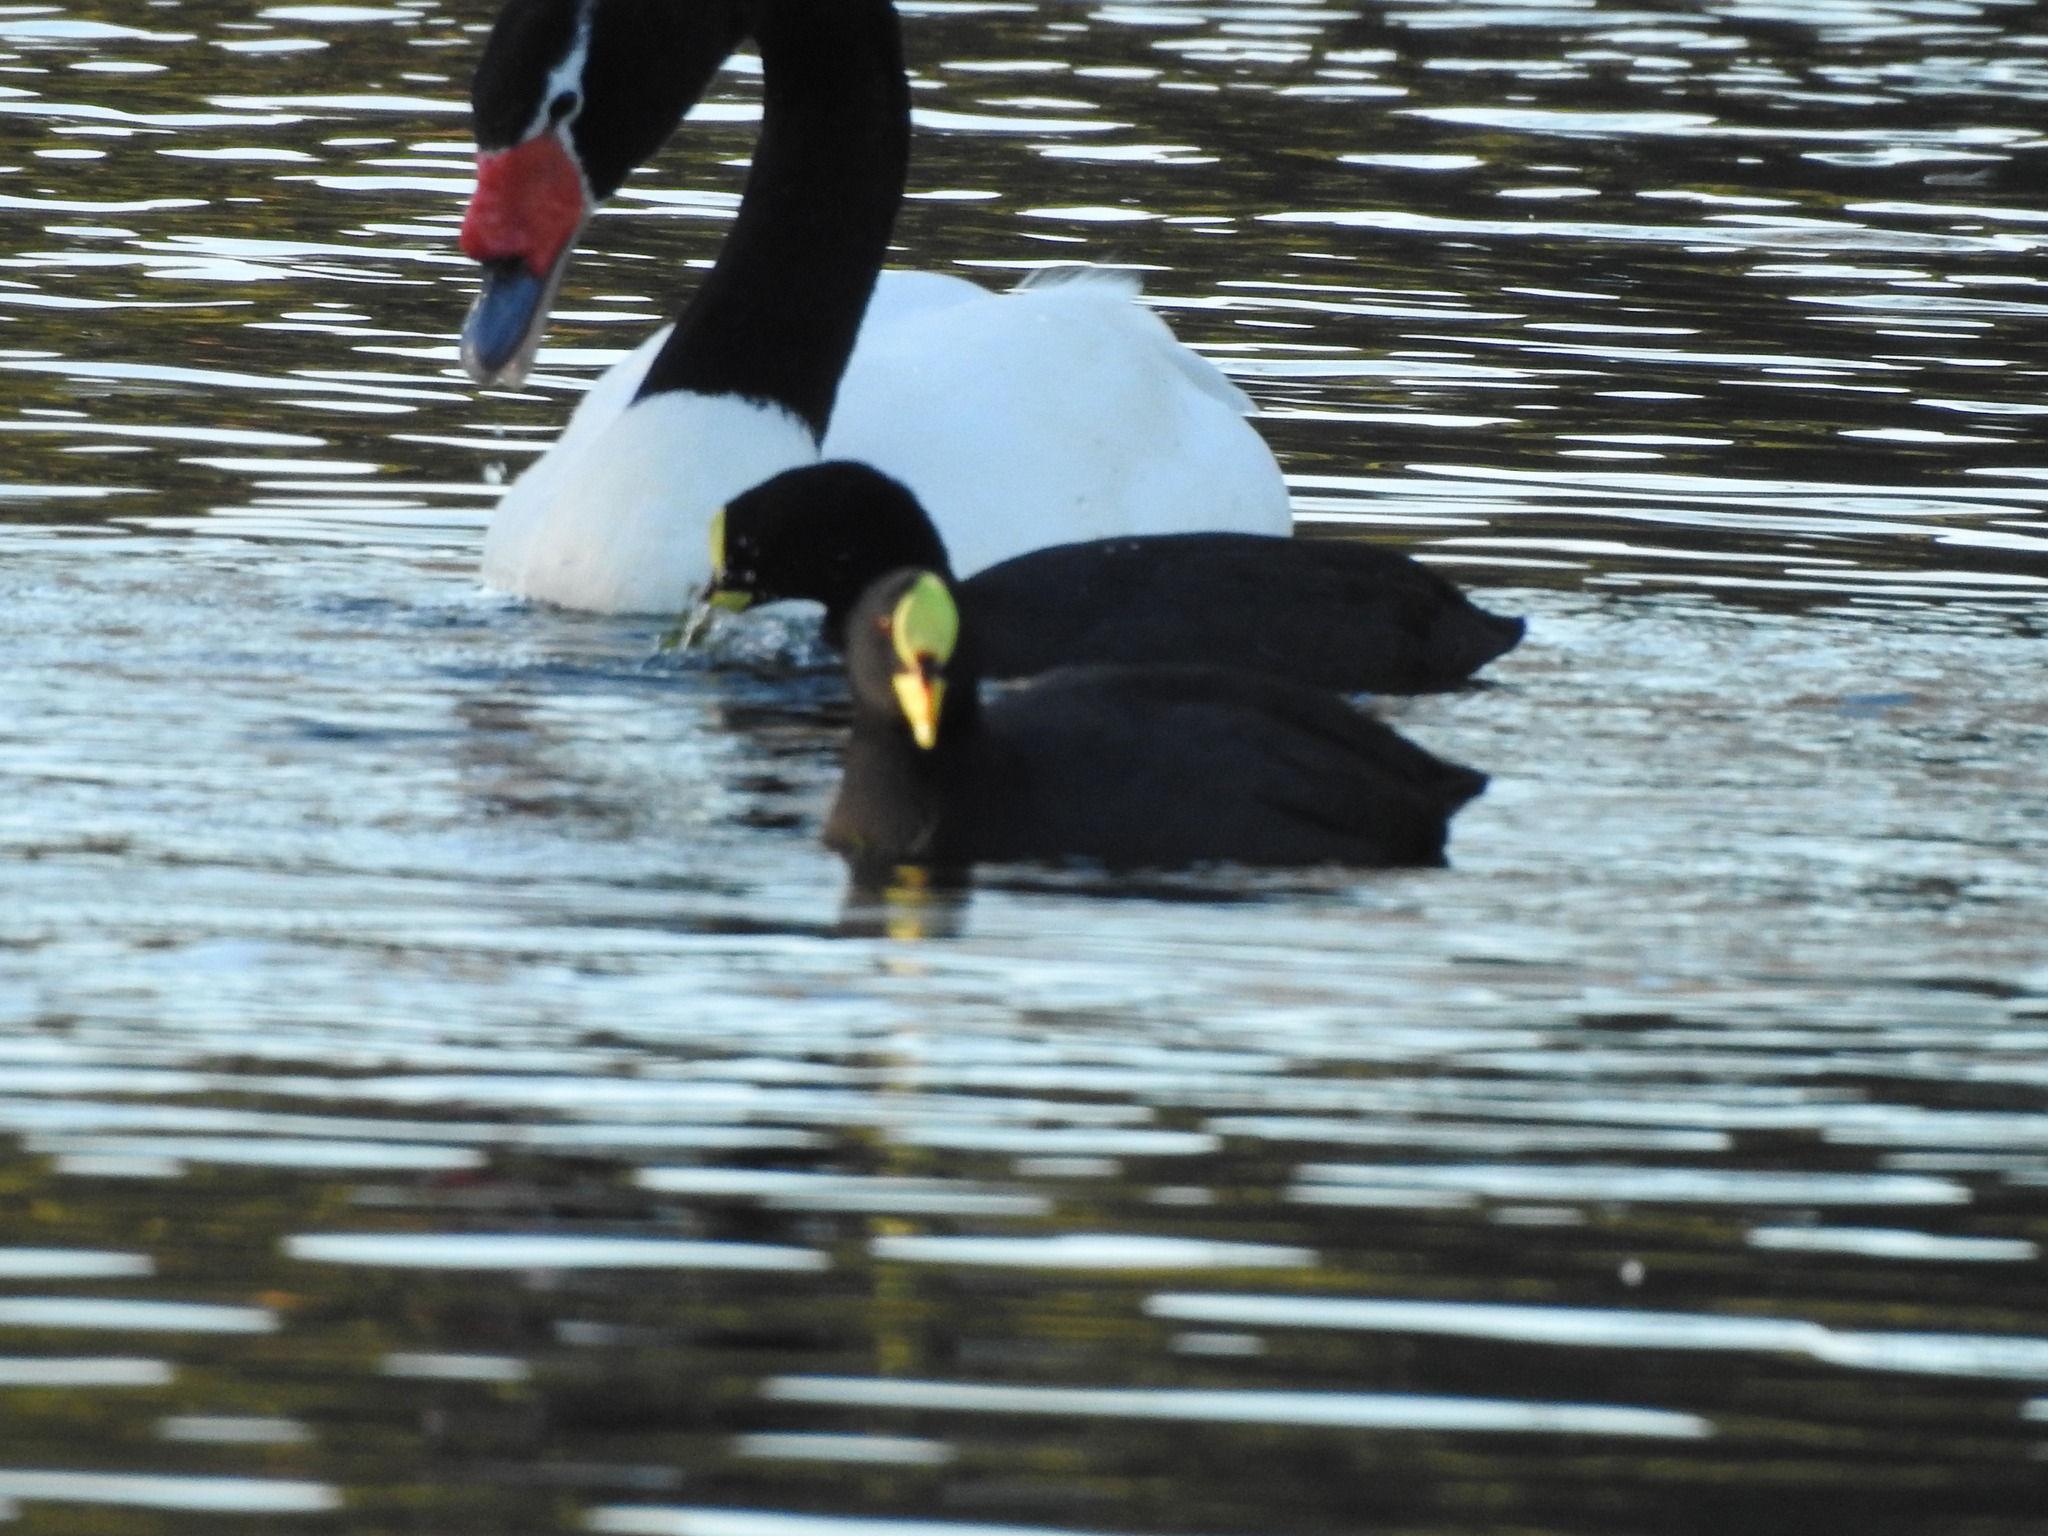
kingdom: Animalia
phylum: Chordata
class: Aves
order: Gruiformes
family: Rallidae
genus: Fulica
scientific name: Fulica armillata
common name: Red-gartered coot
